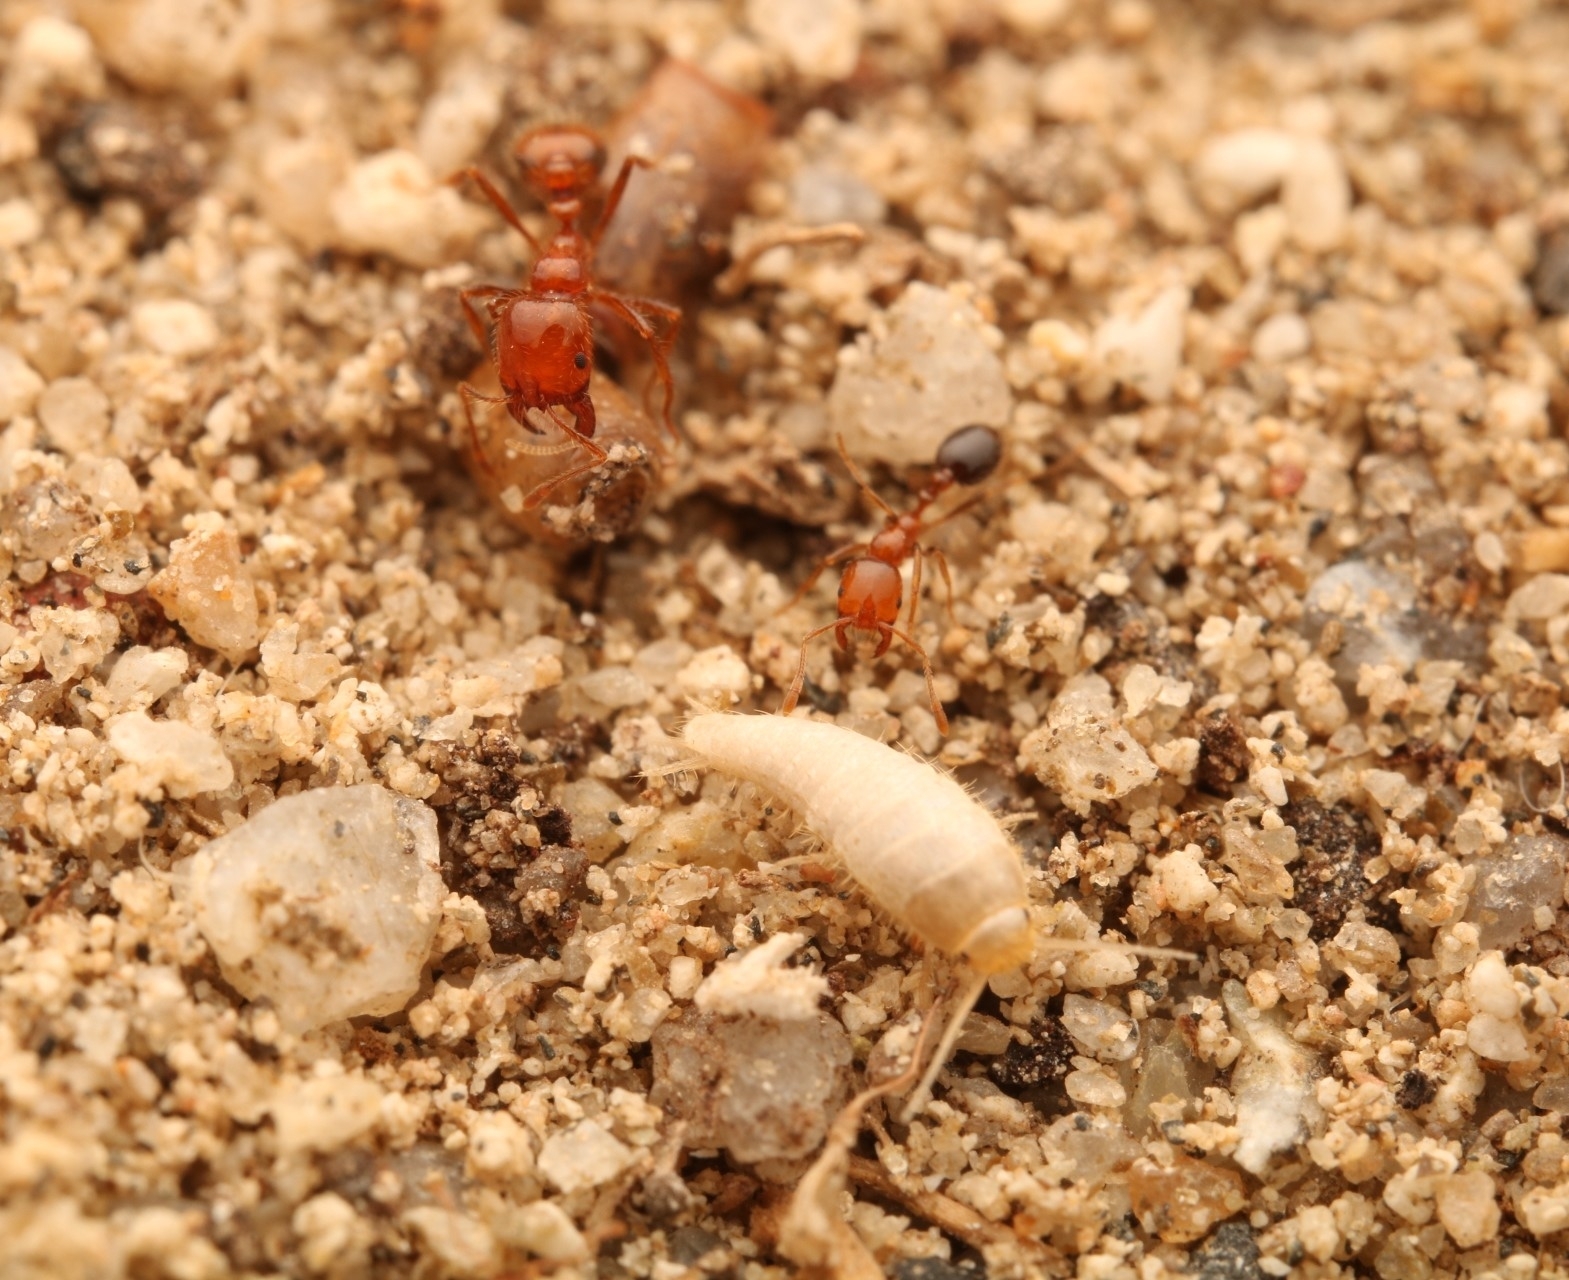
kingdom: Animalia
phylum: Arthropoda
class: Insecta
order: Zygentoma
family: Lepismatidae
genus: Mirolepisma
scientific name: Mirolepisma deserticola
